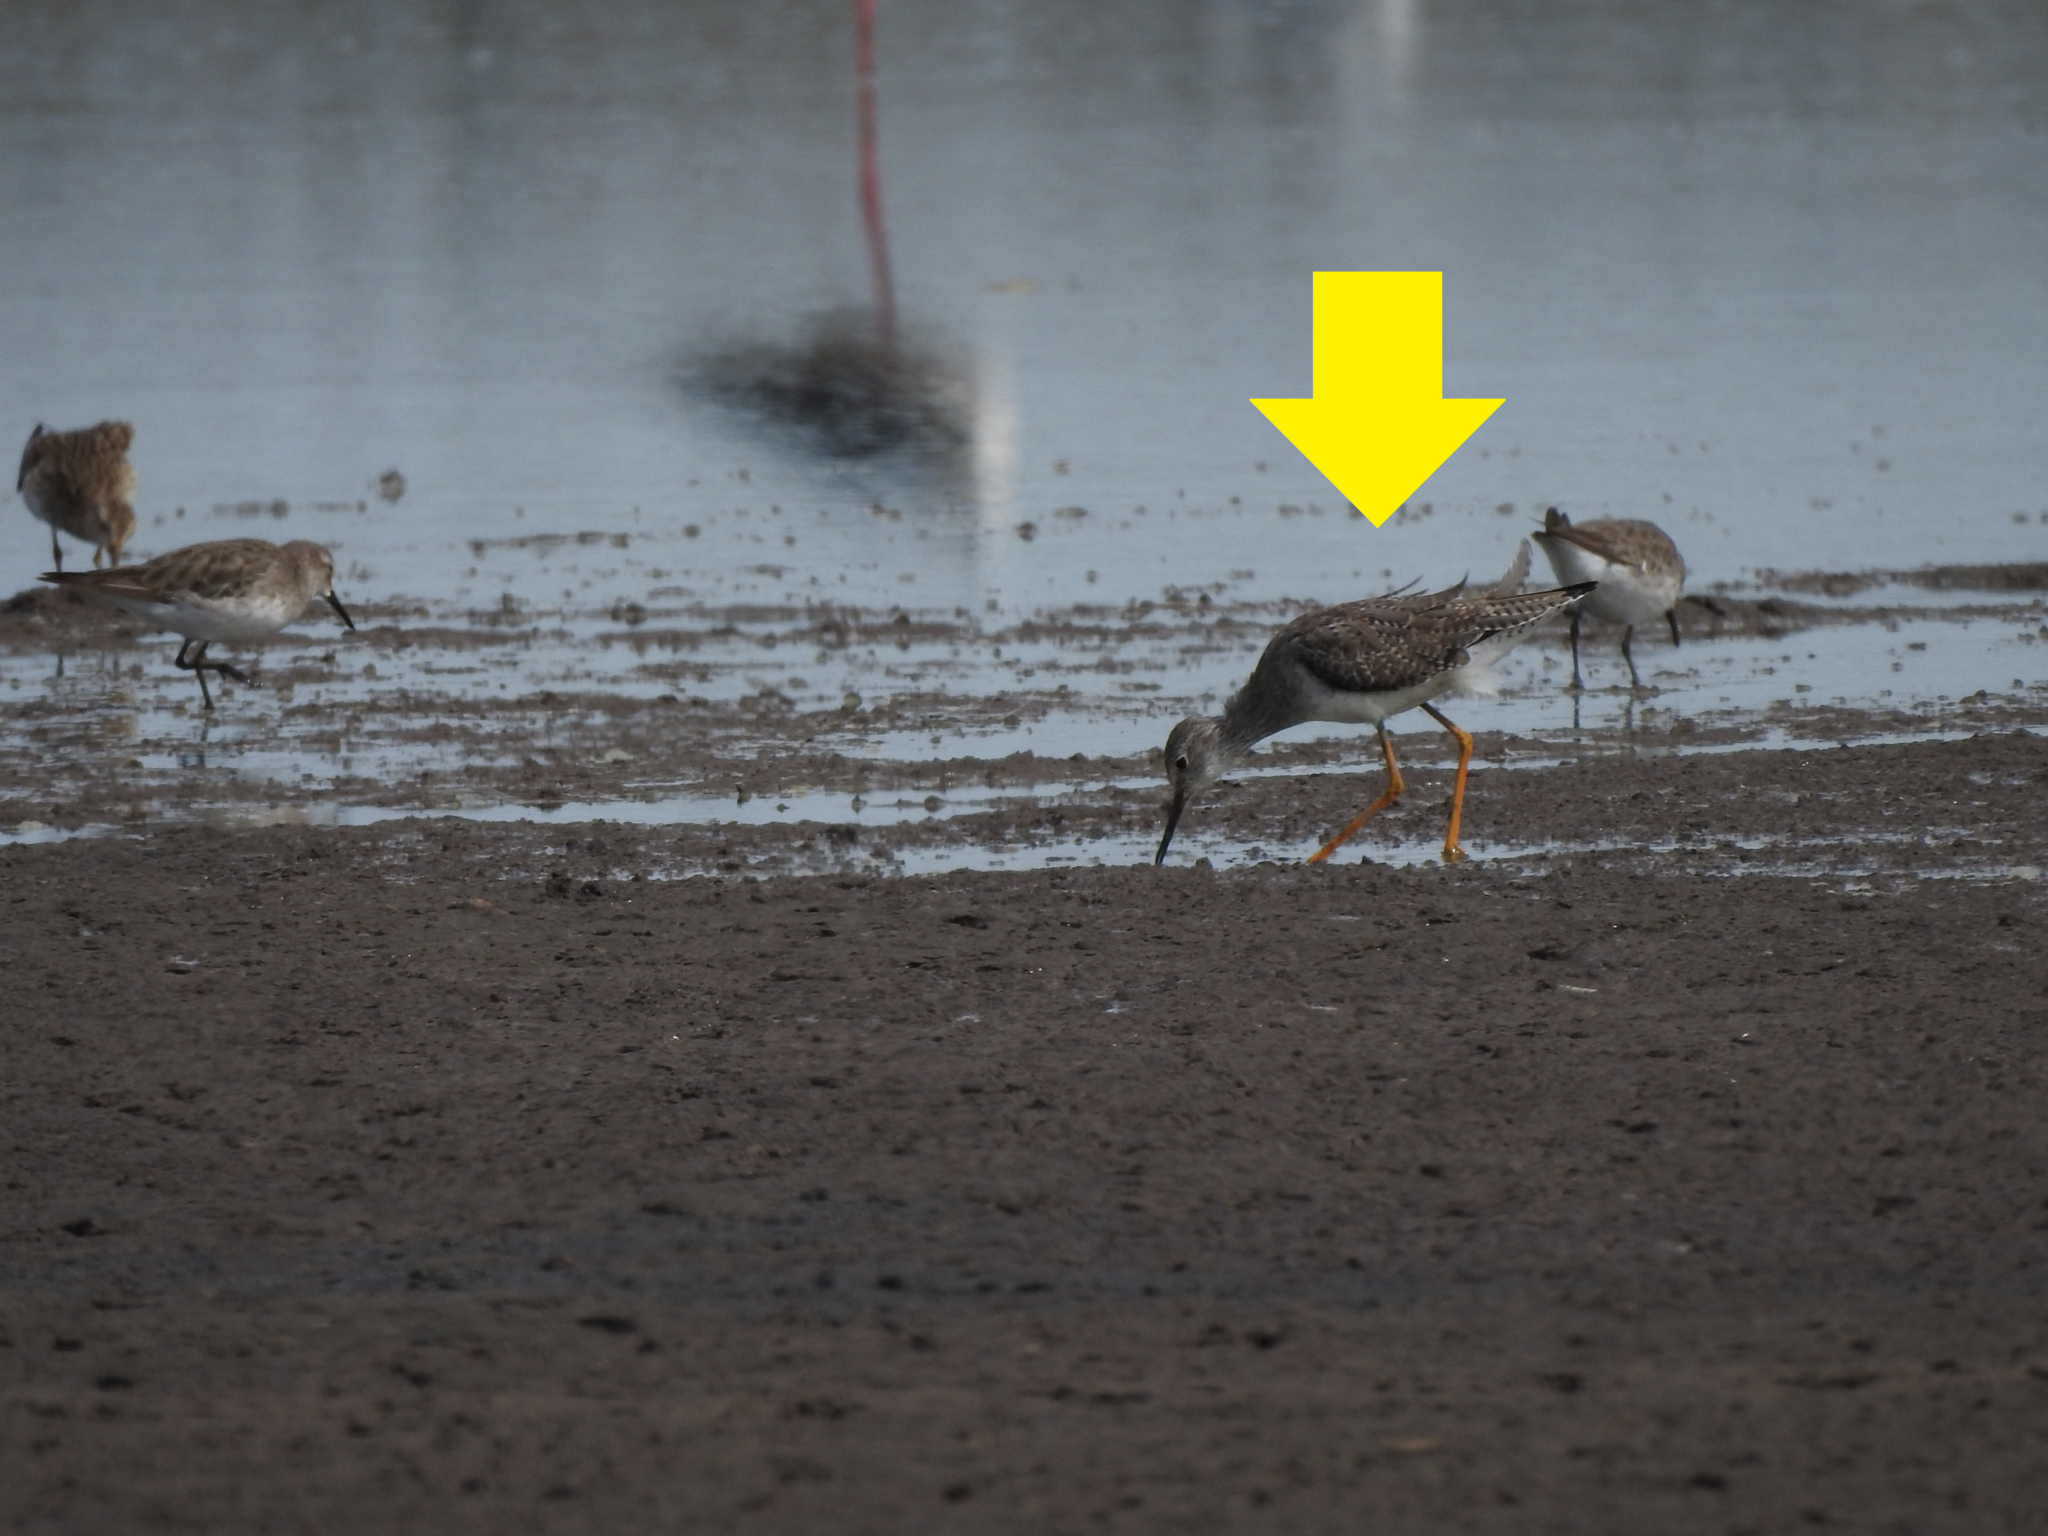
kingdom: Animalia
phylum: Chordata
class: Aves
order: Charadriiformes
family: Scolopacidae
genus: Tringa
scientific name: Tringa flavipes
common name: Lesser yellowlegs
